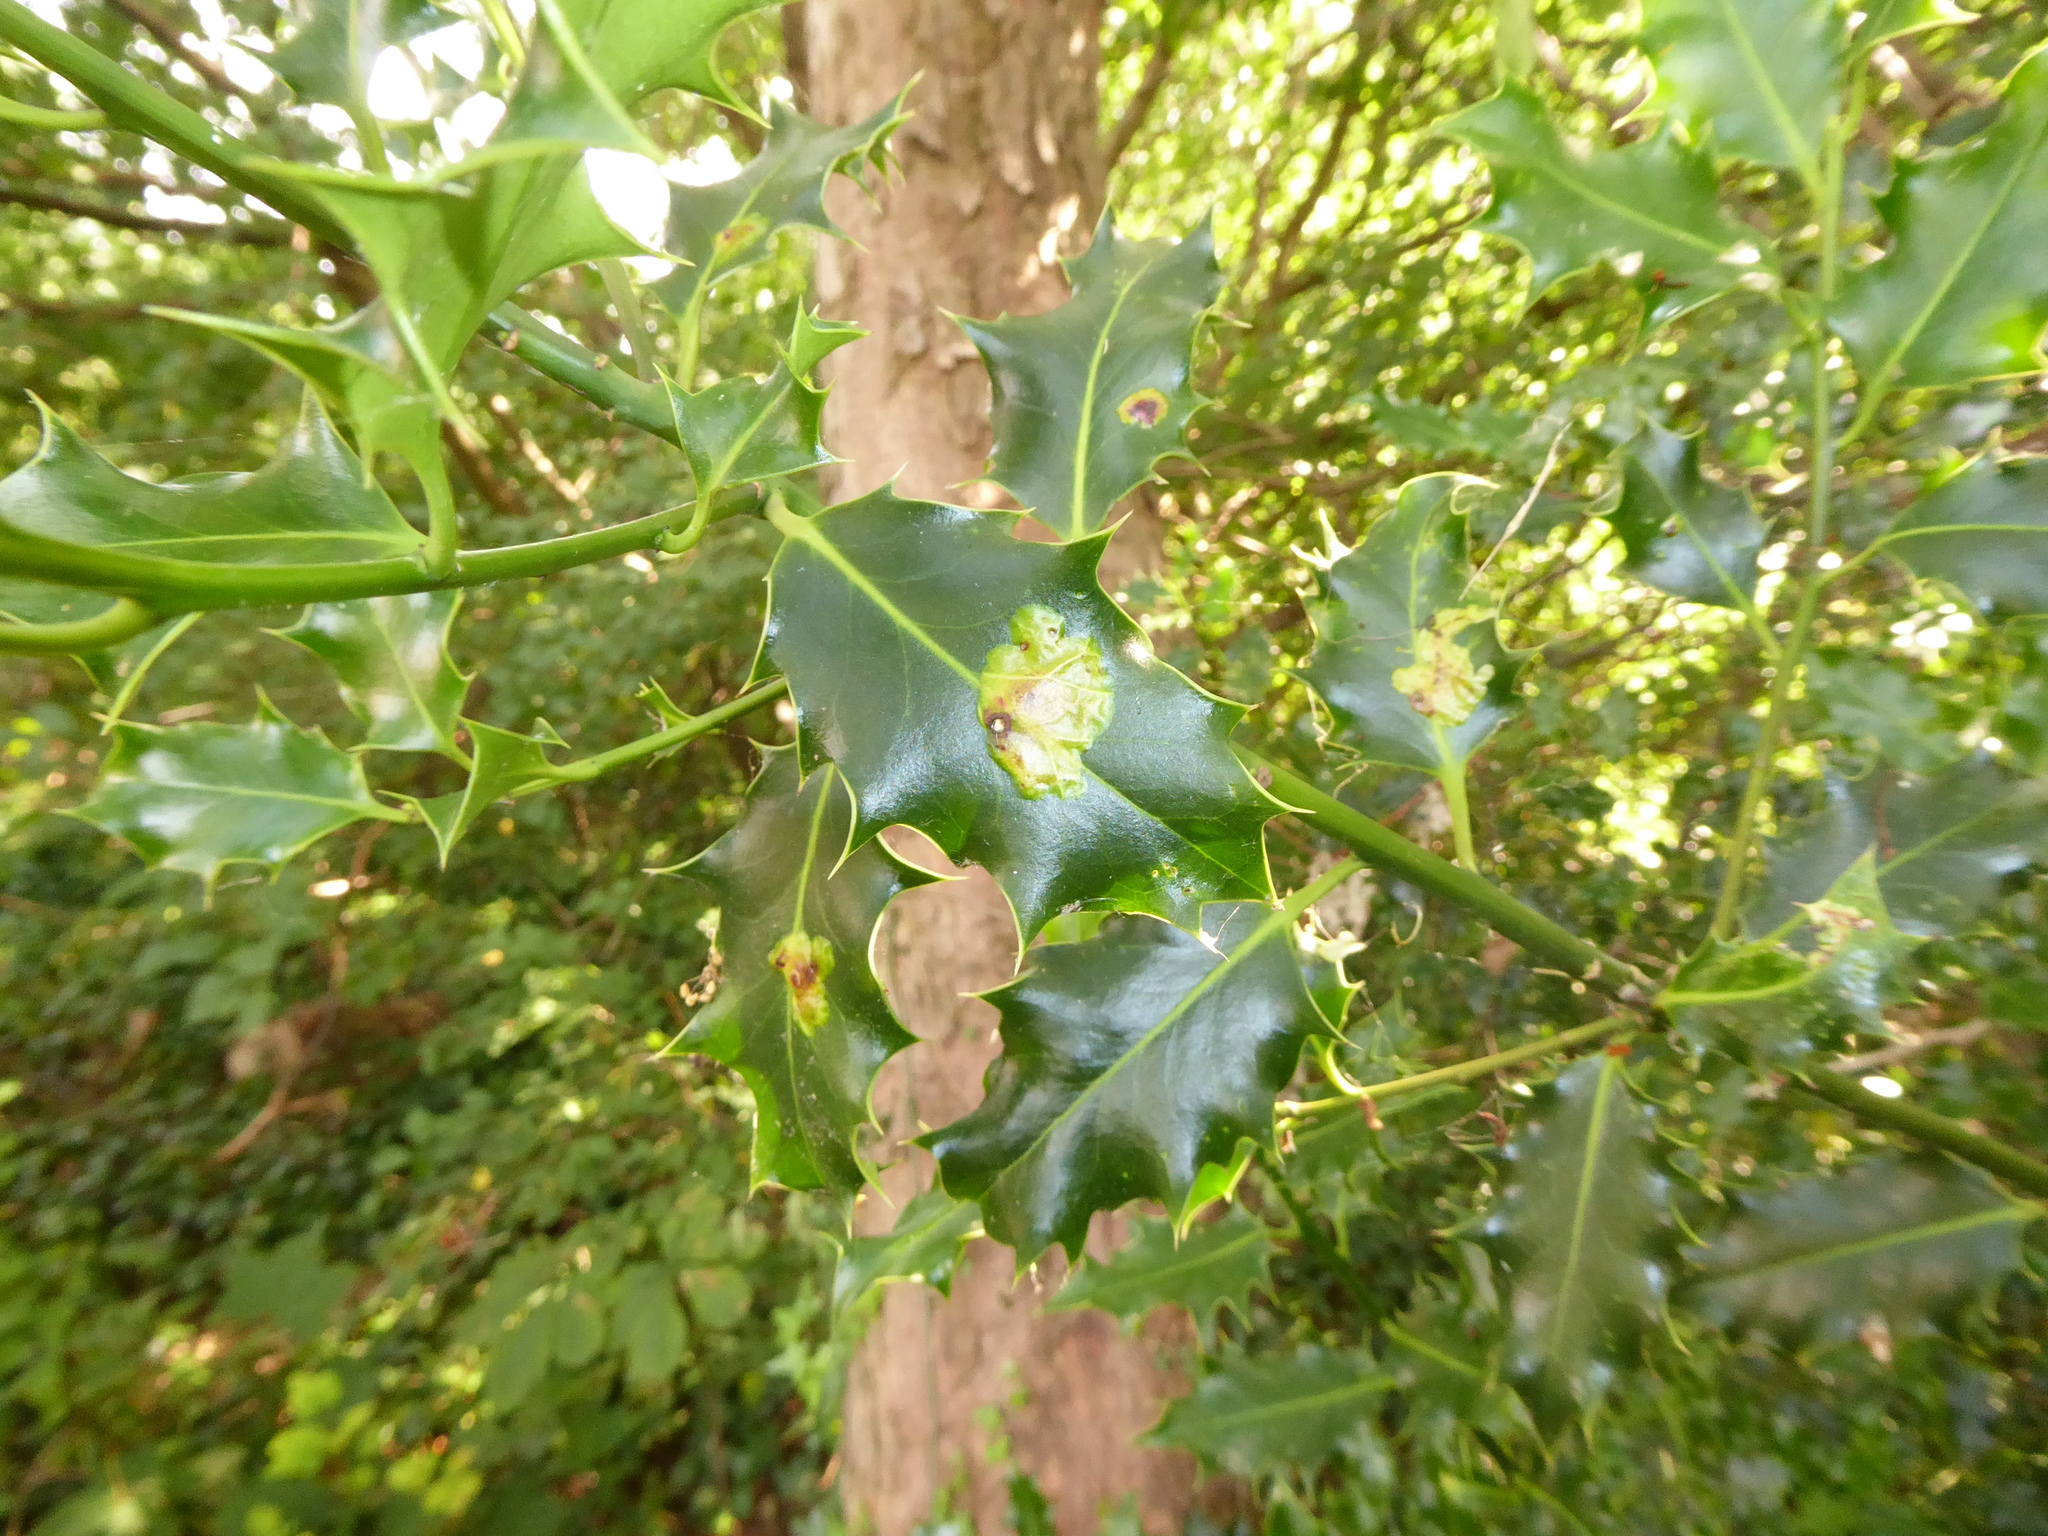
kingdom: Animalia
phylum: Arthropoda
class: Insecta
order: Diptera
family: Agromyzidae
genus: Phytomyza
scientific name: Phytomyza ilicis
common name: Holly leafminer
